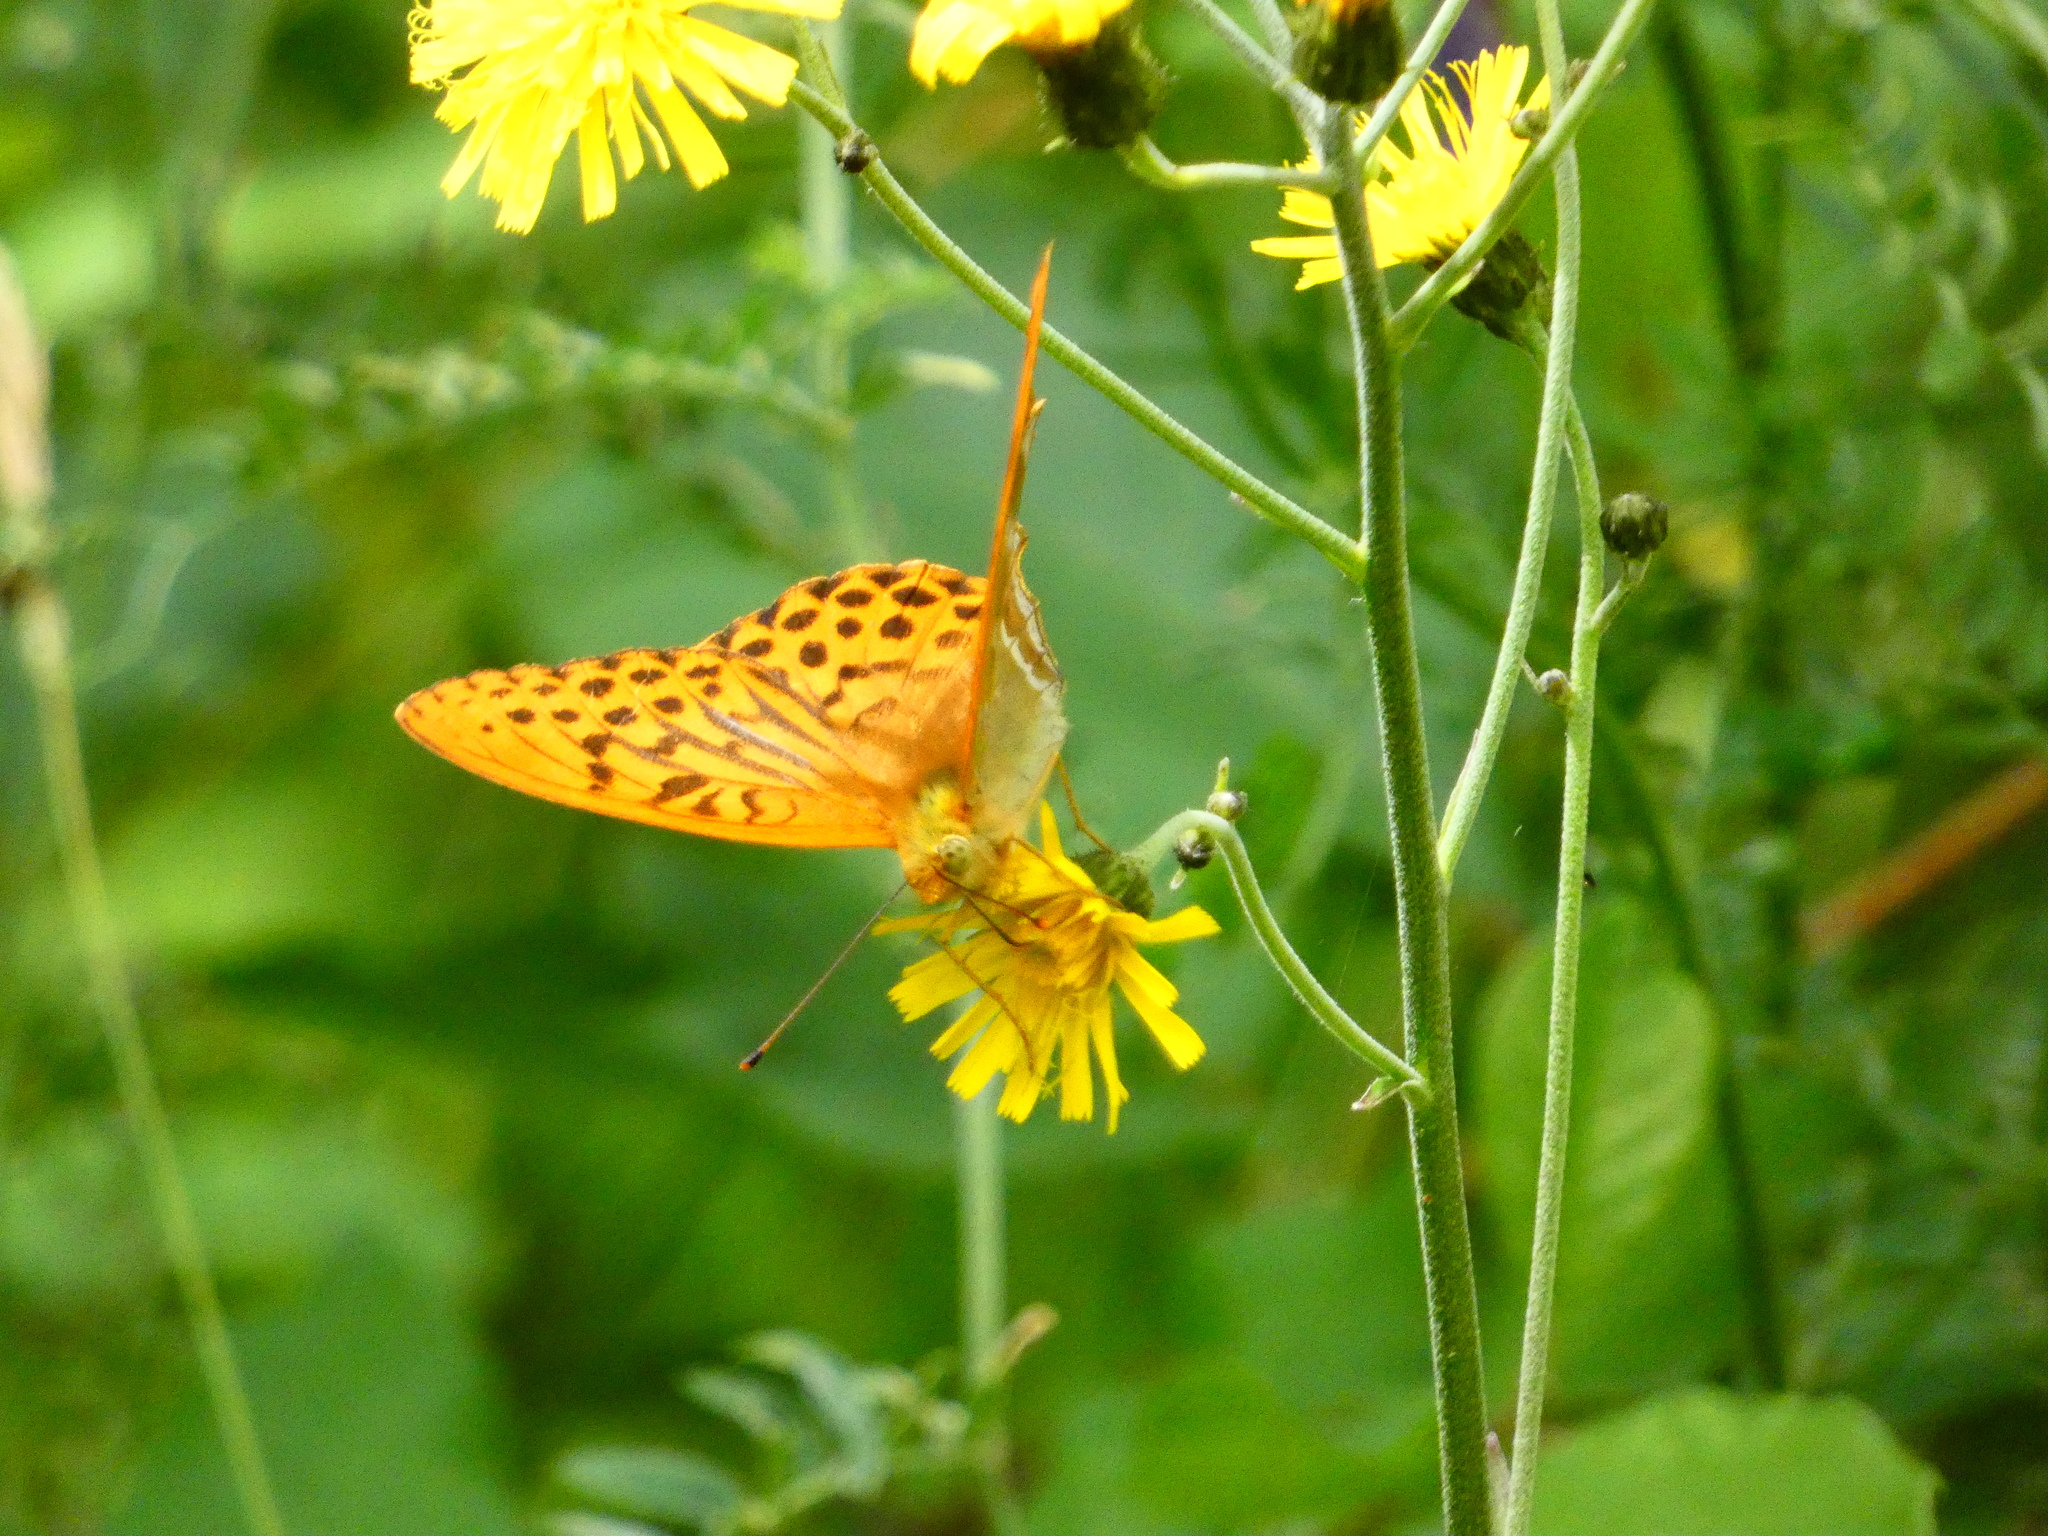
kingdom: Animalia
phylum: Arthropoda
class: Insecta
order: Lepidoptera
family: Nymphalidae
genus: Argynnis
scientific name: Argynnis paphia
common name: Silver-washed fritillary
